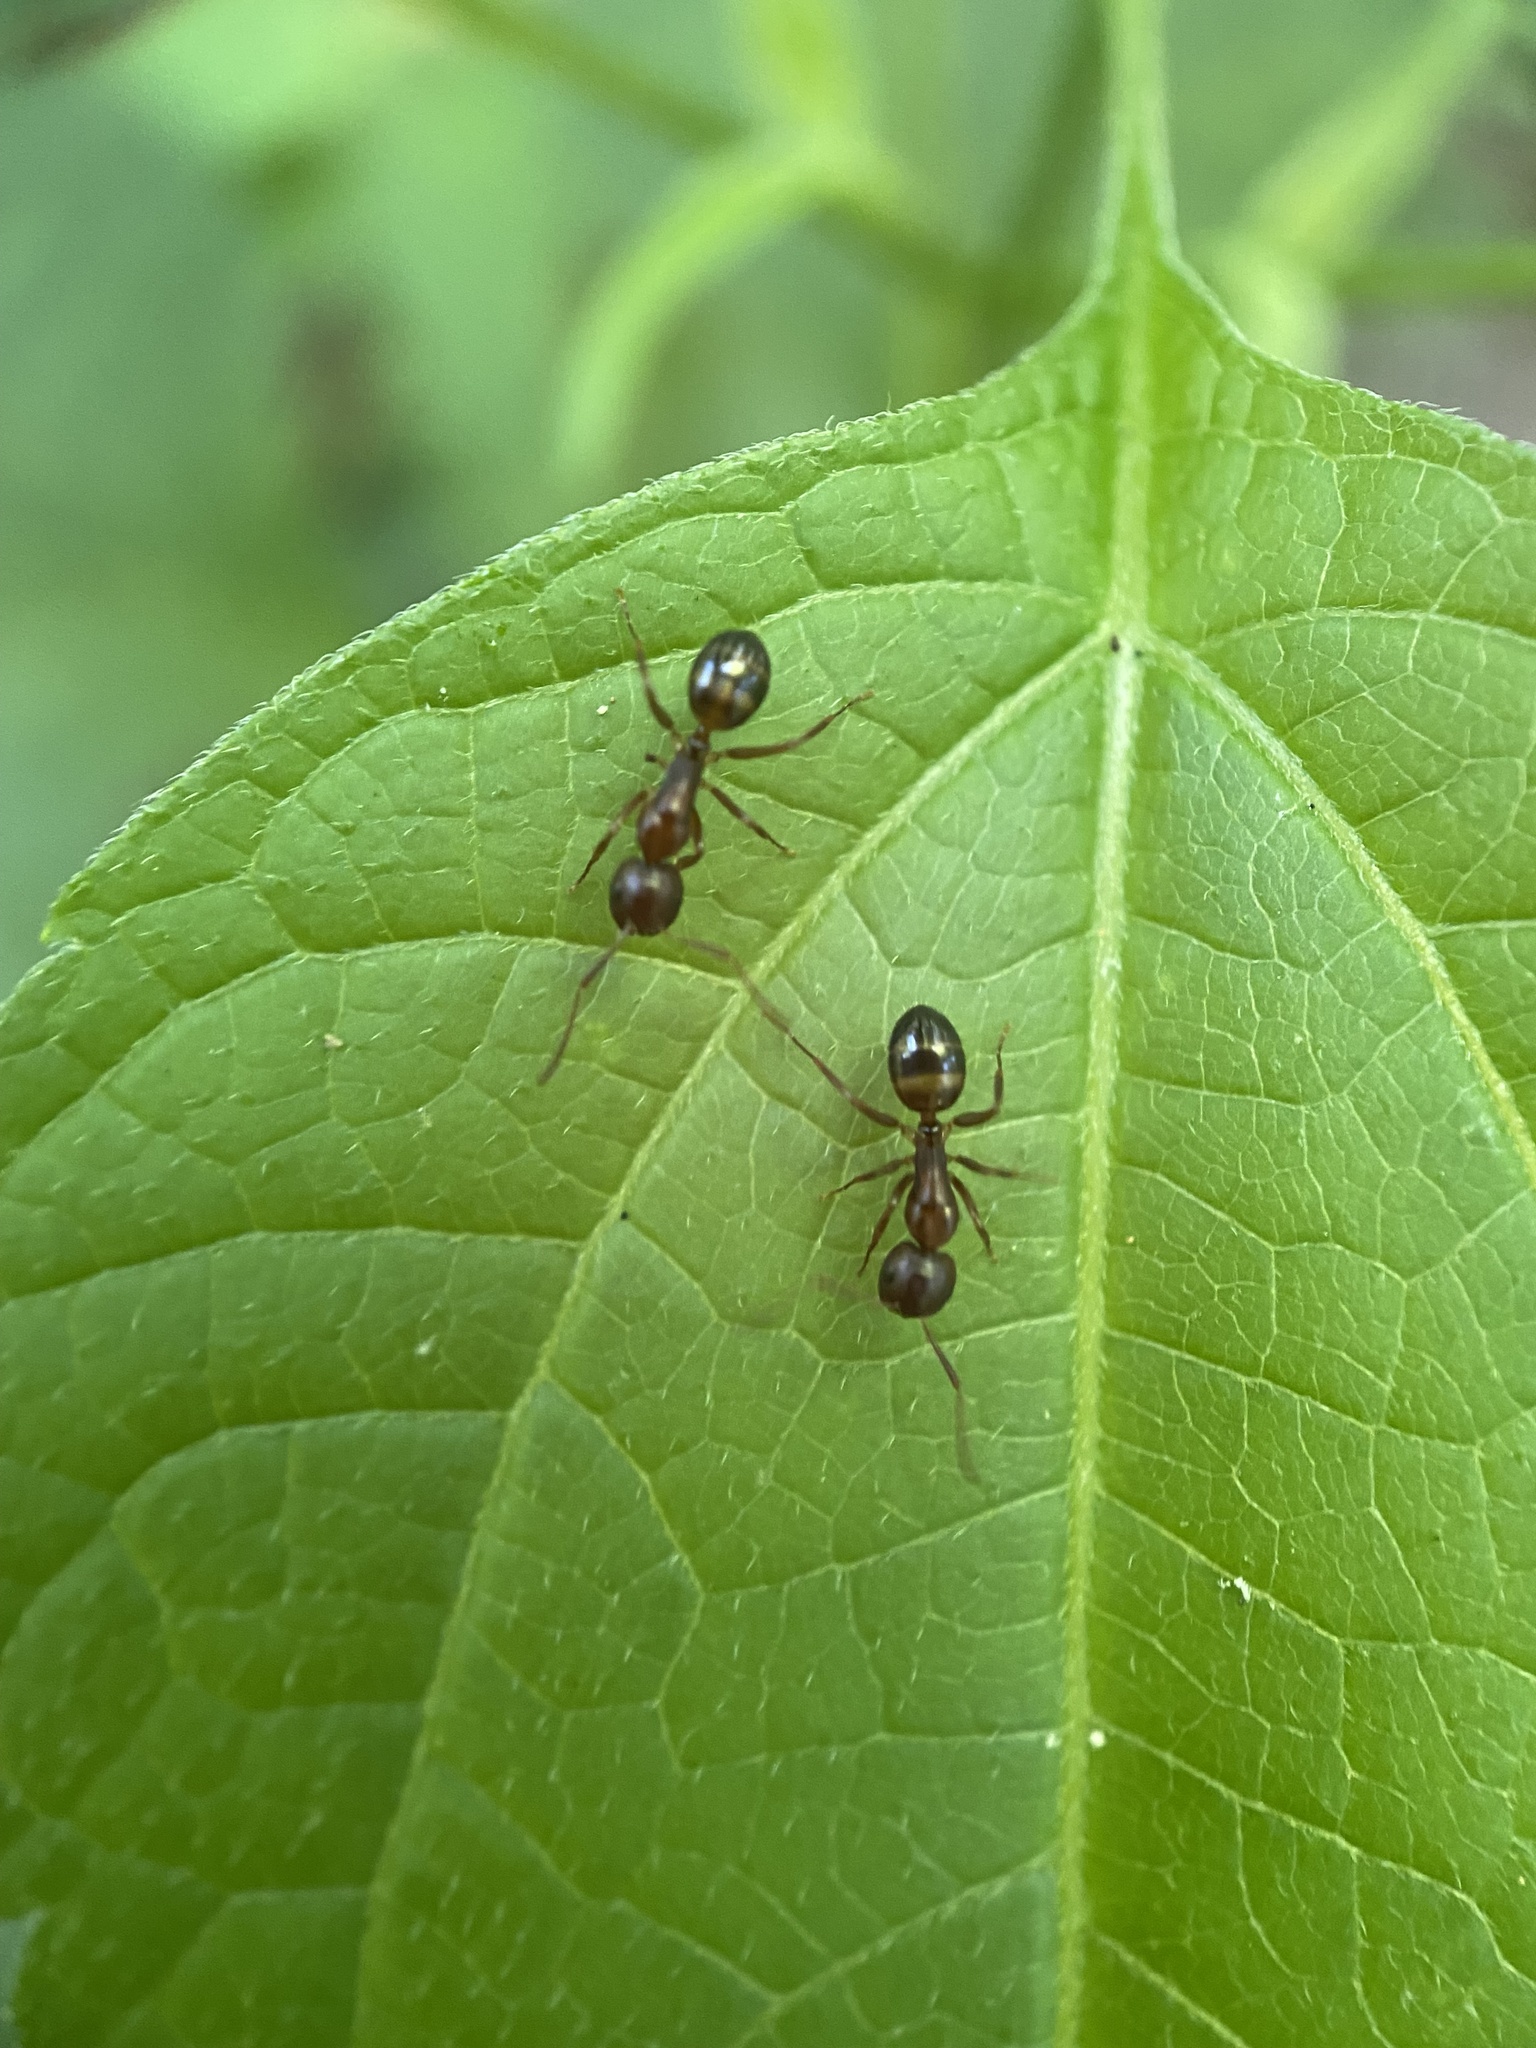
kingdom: Animalia
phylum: Arthropoda
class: Insecta
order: Hymenoptera
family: Formicidae
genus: Camponotus
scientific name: Camponotus subbarbatus
